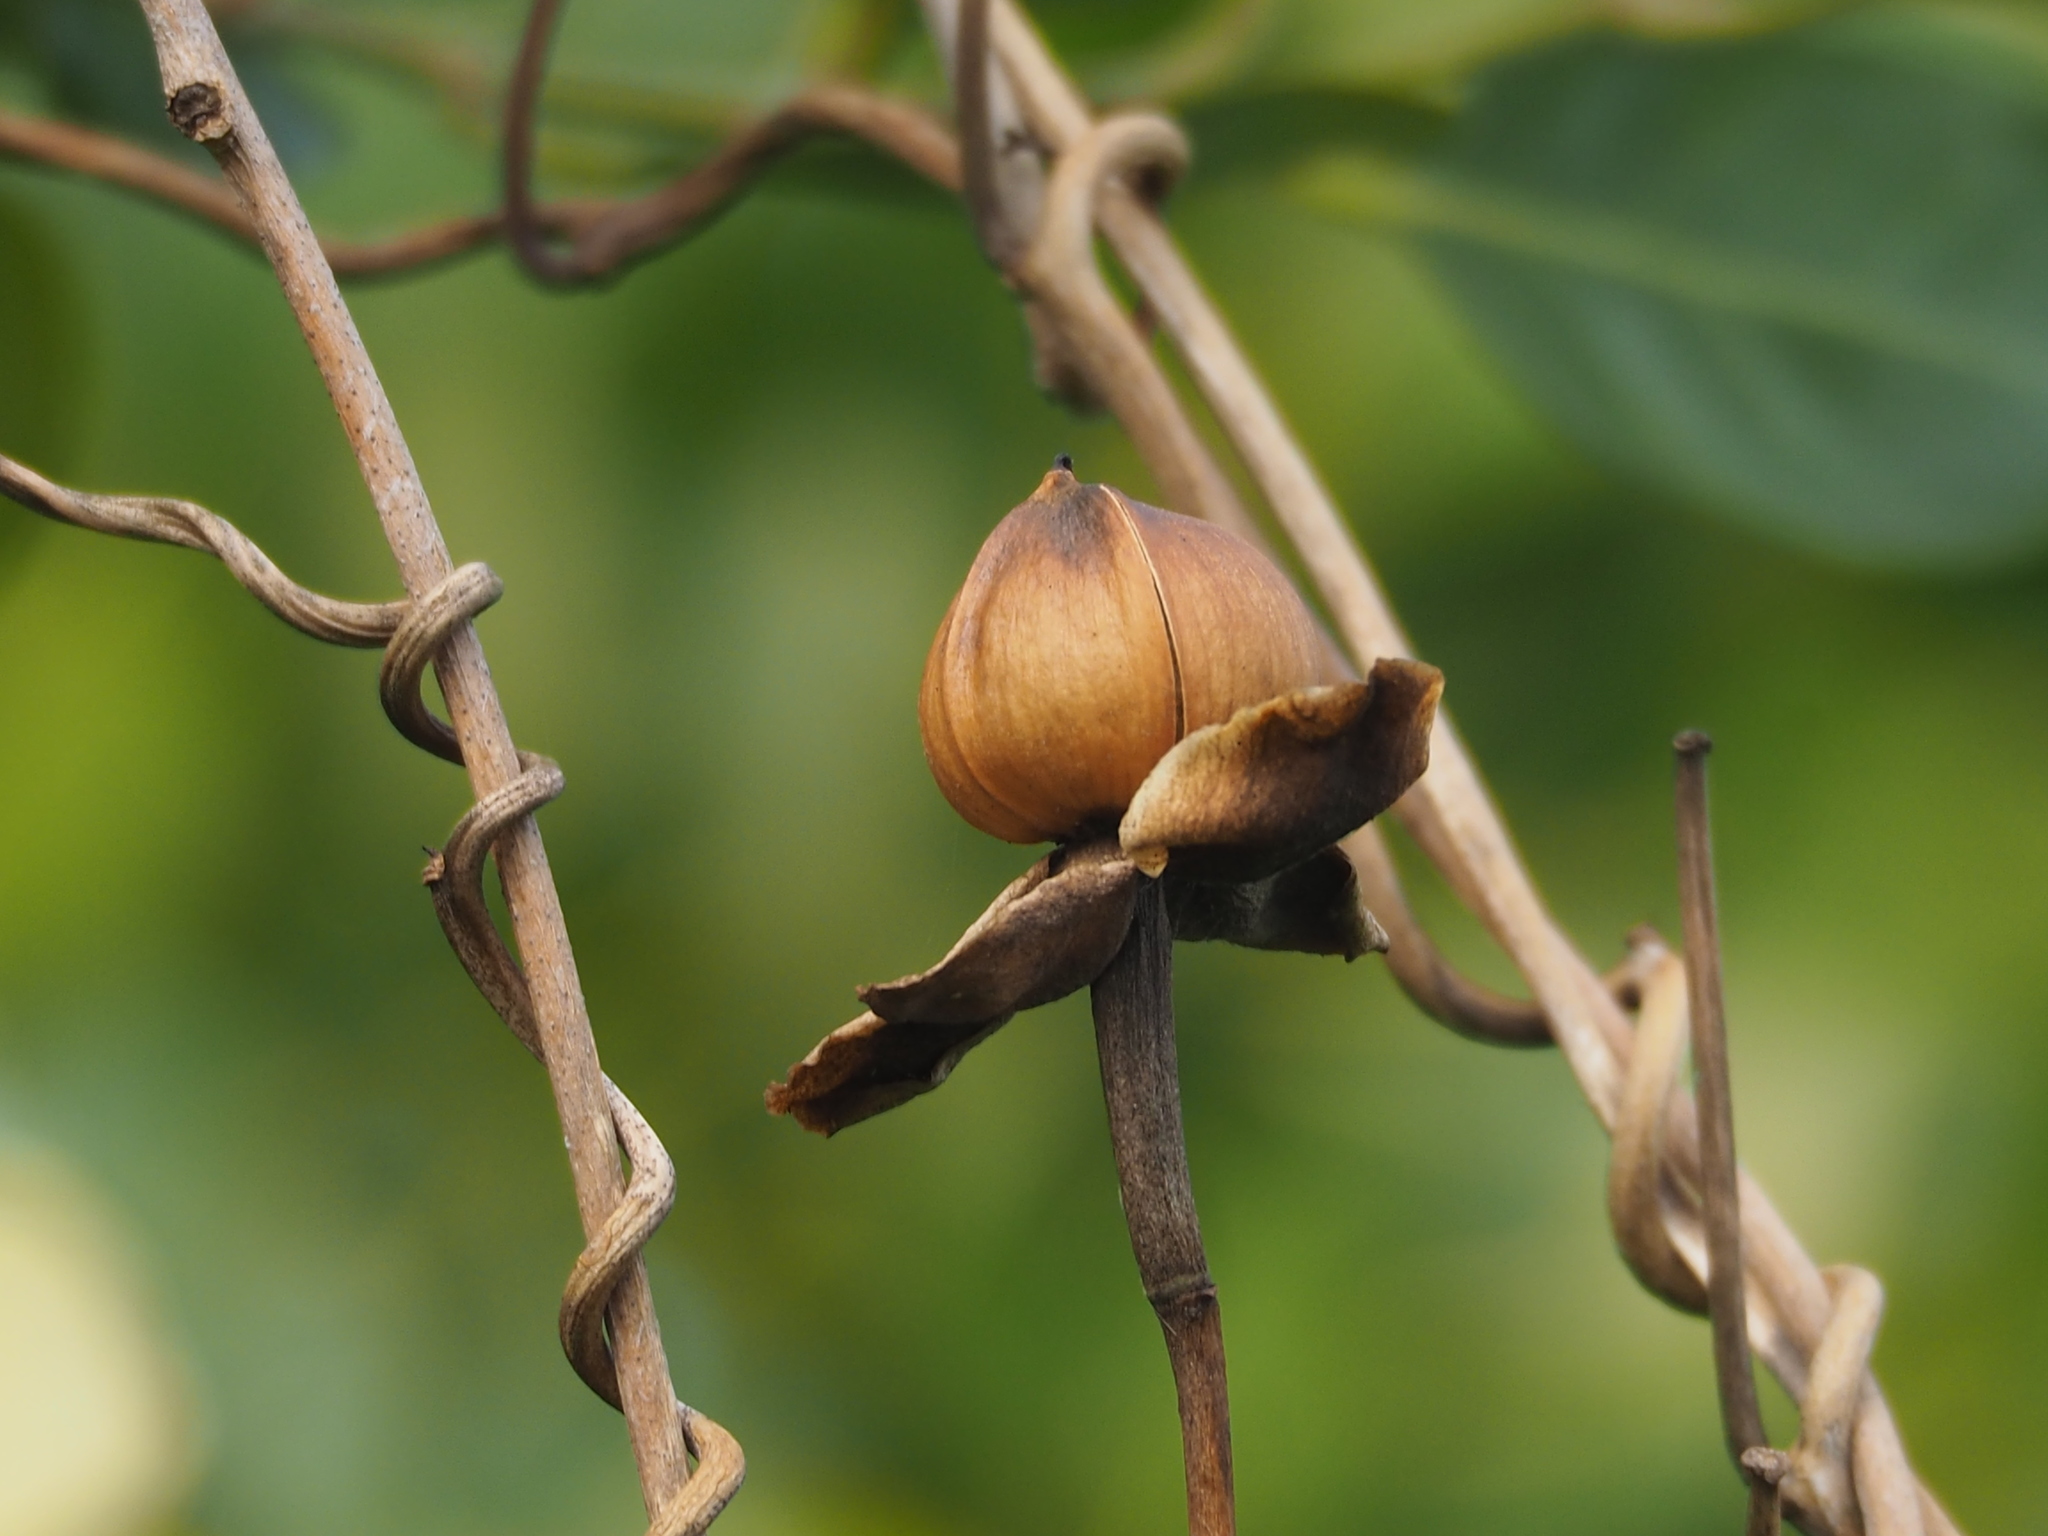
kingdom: Plantae
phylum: Tracheophyta
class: Magnoliopsida
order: Solanales
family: Convolvulaceae
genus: Ipomoea
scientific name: Ipomoea violacea
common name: Beach moonflower
